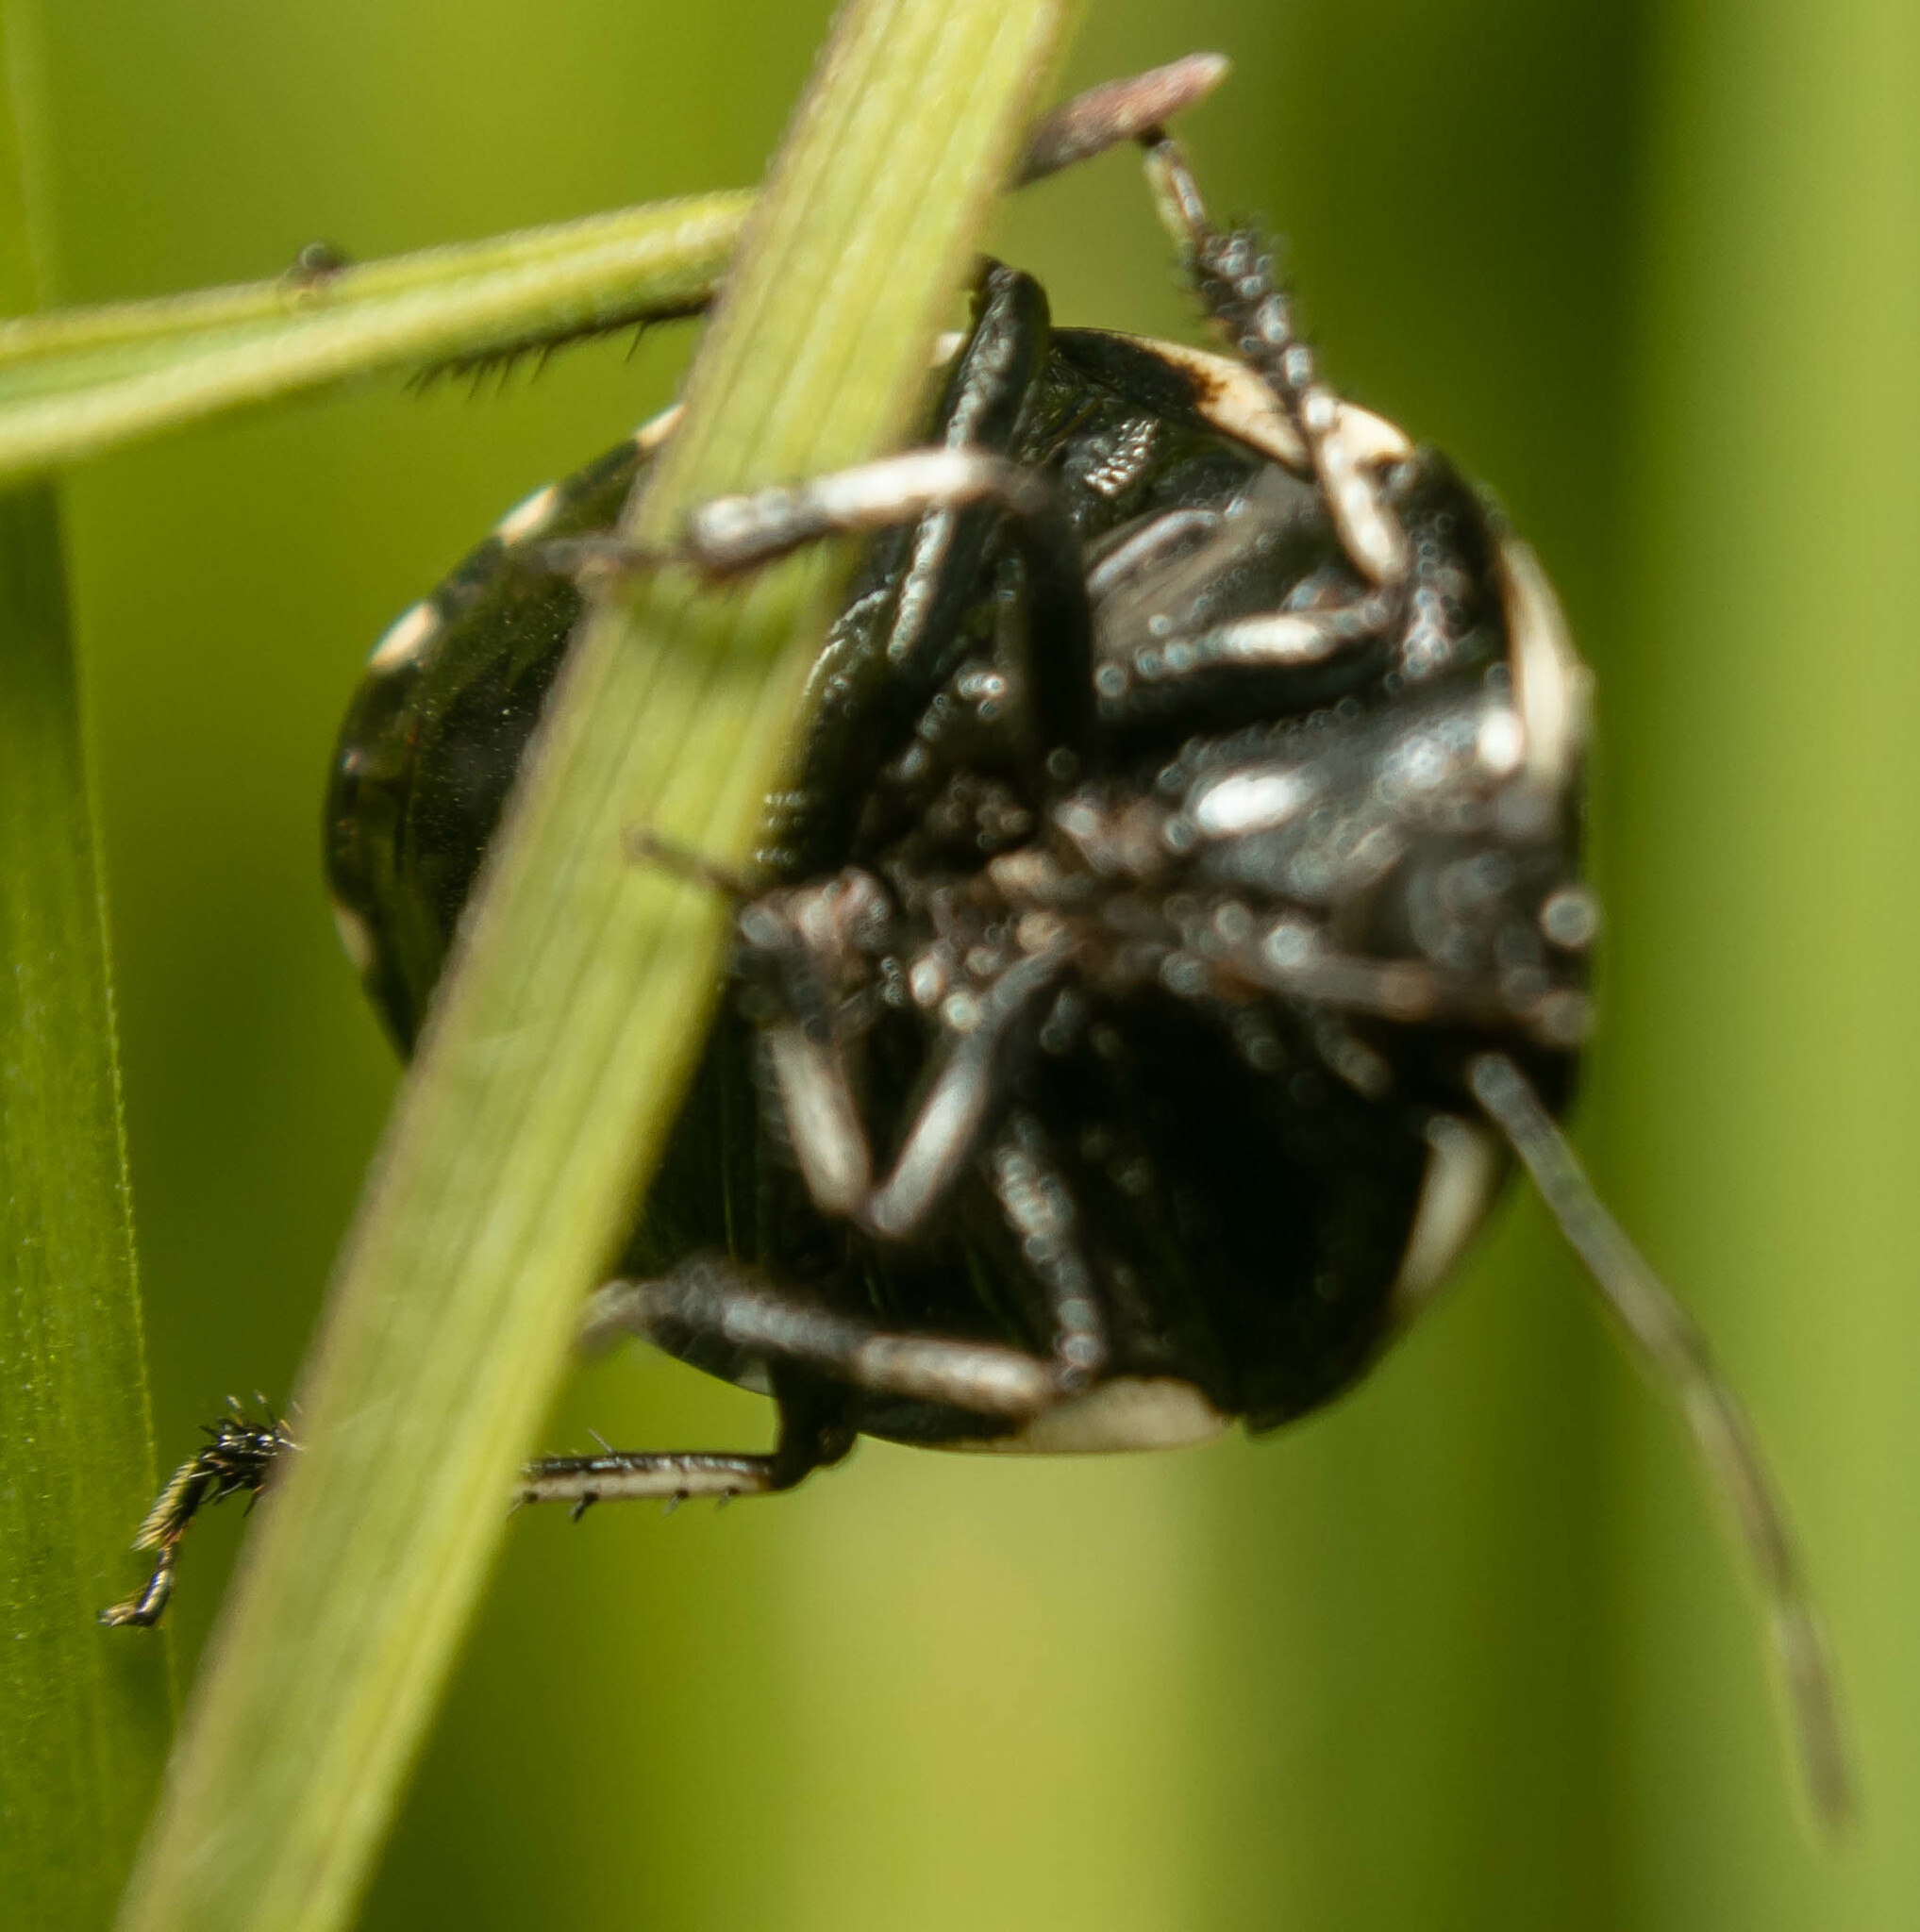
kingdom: Animalia
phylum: Arthropoda
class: Insecta
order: Hemiptera
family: Cydnidae
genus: Tritomegas
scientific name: Tritomegas bicolor
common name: Pied shieldbug
